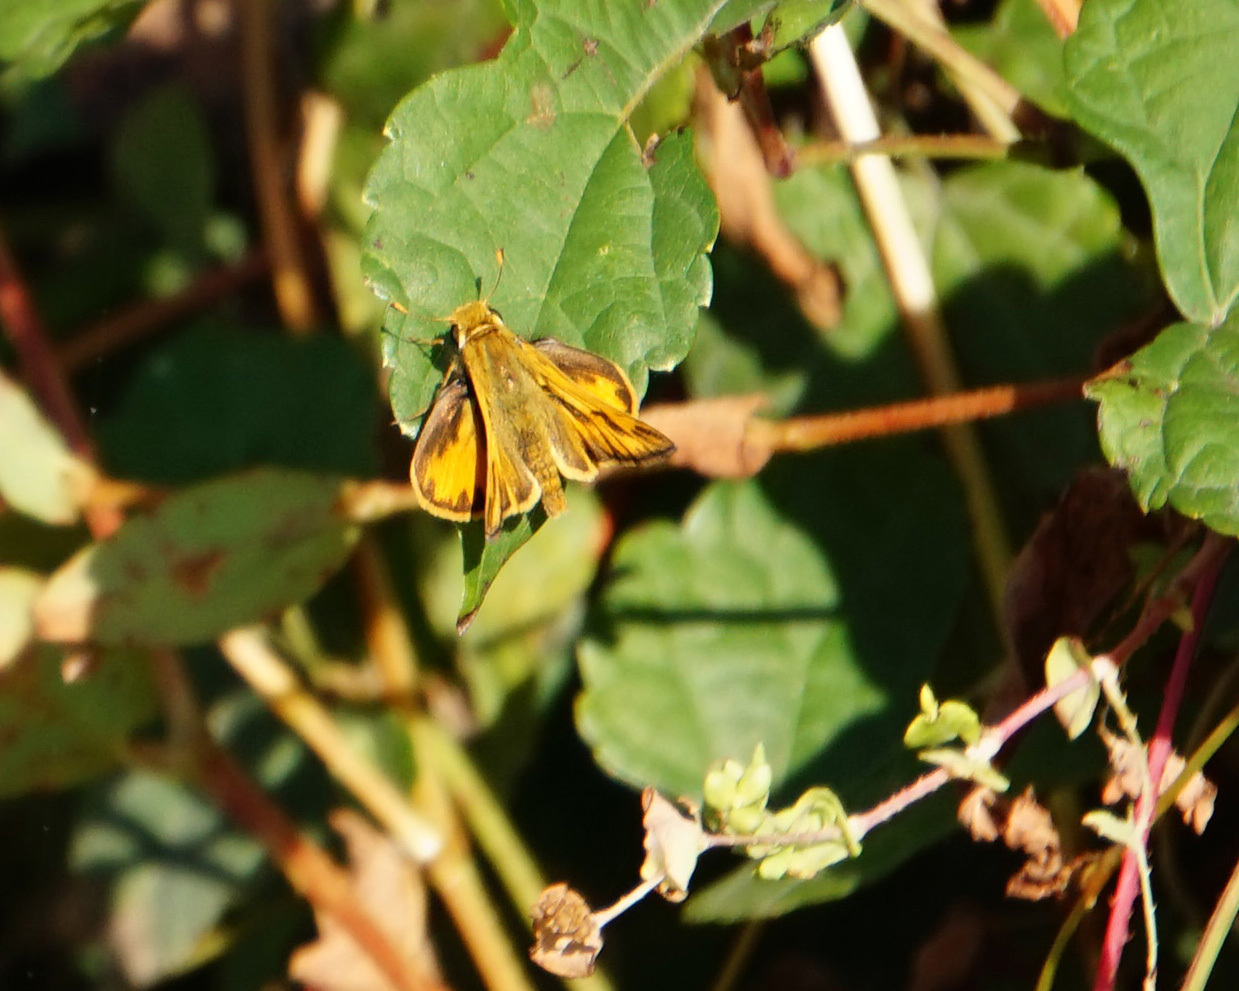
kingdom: Animalia
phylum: Arthropoda
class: Insecta
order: Lepidoptera
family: Hesperiidae
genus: Hylephila
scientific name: Hylephila phyleus
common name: Fiery skipper
